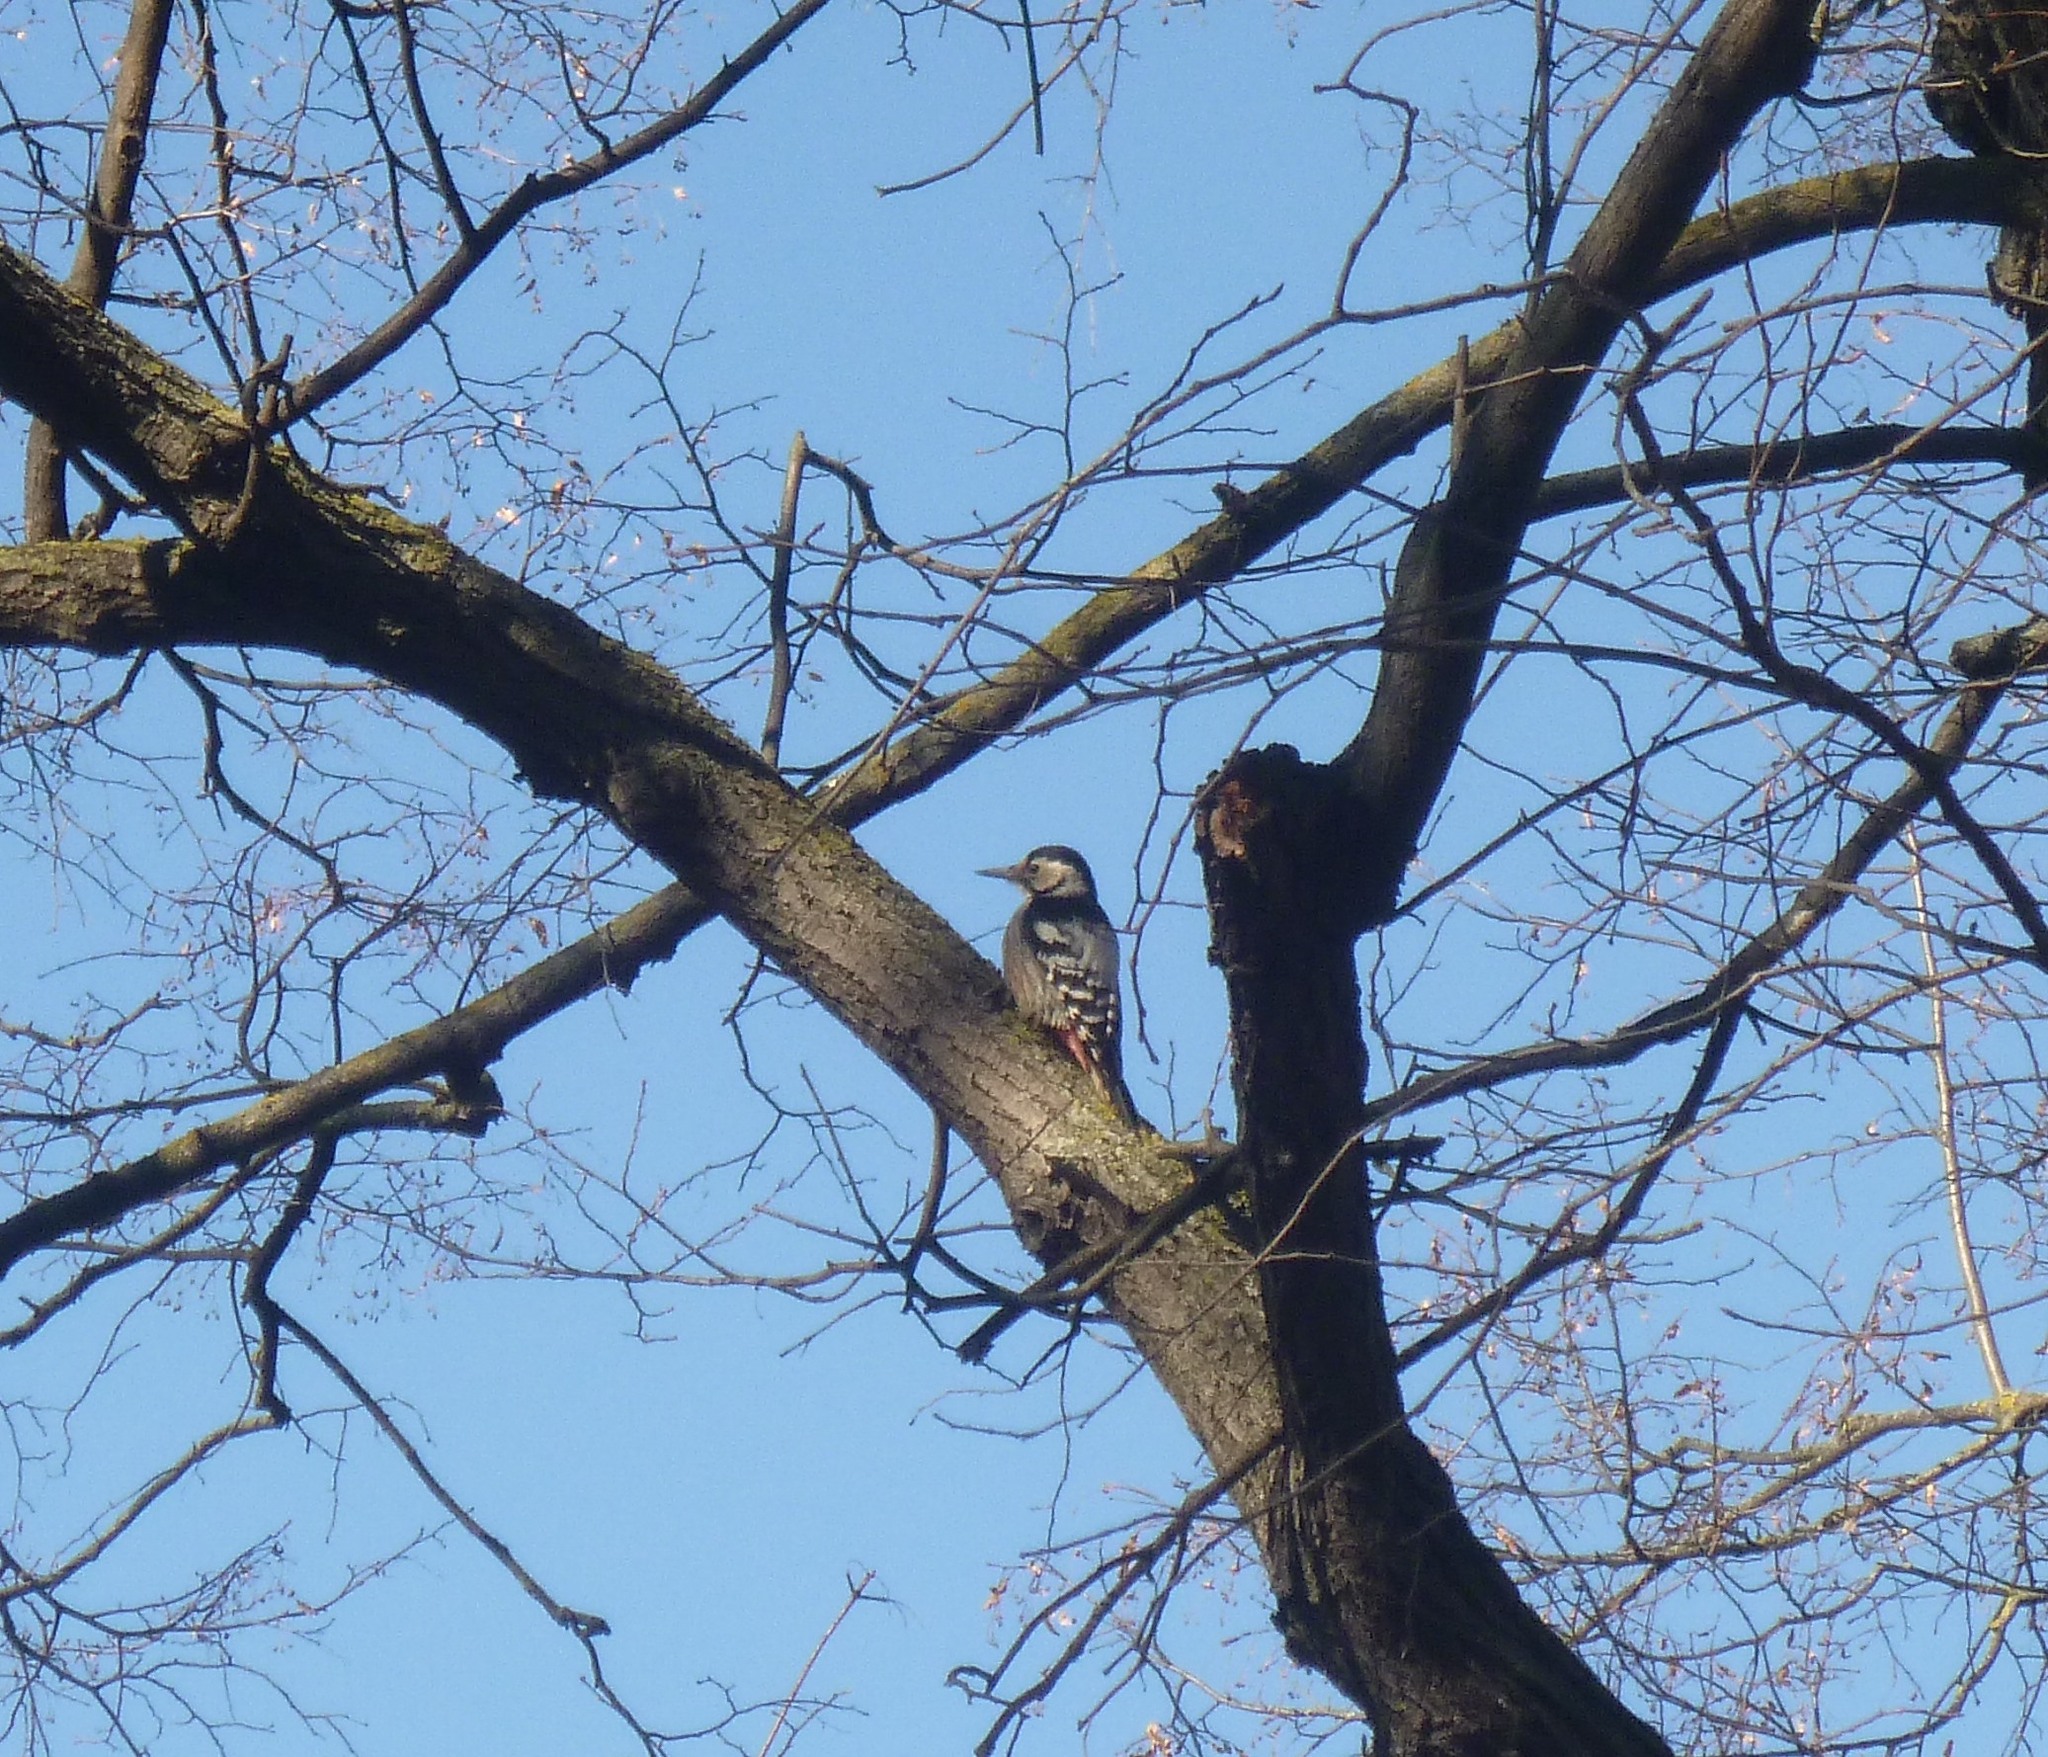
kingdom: Animalia
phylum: Chordata
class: Aves
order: Piciformes
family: Picidae
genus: Dendrocopos
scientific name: Dendrocopos leucotos
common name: White-backed woodpecker
